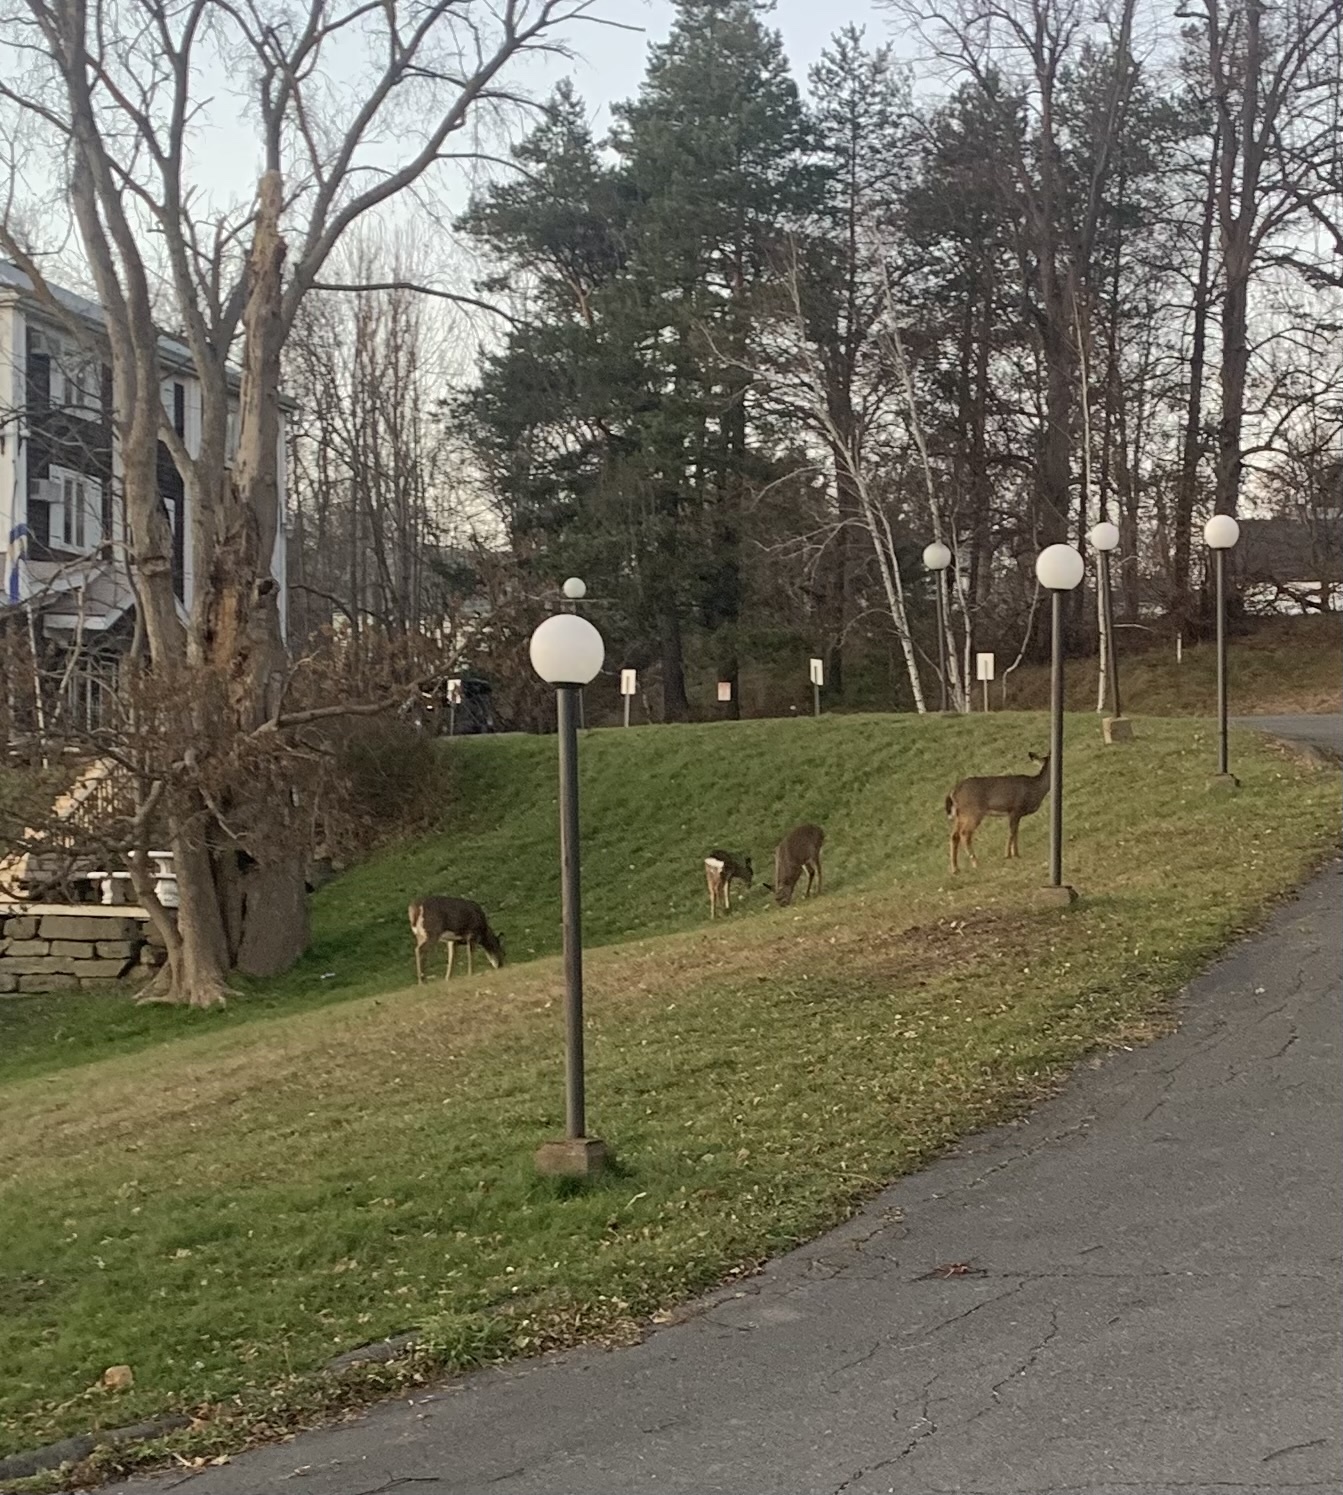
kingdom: Animalia
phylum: Chordata
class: Mammalia
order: Artiodactyla
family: Cervidae
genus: Odocoileus
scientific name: Odocoileus virginianus
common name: White-tailed deer
